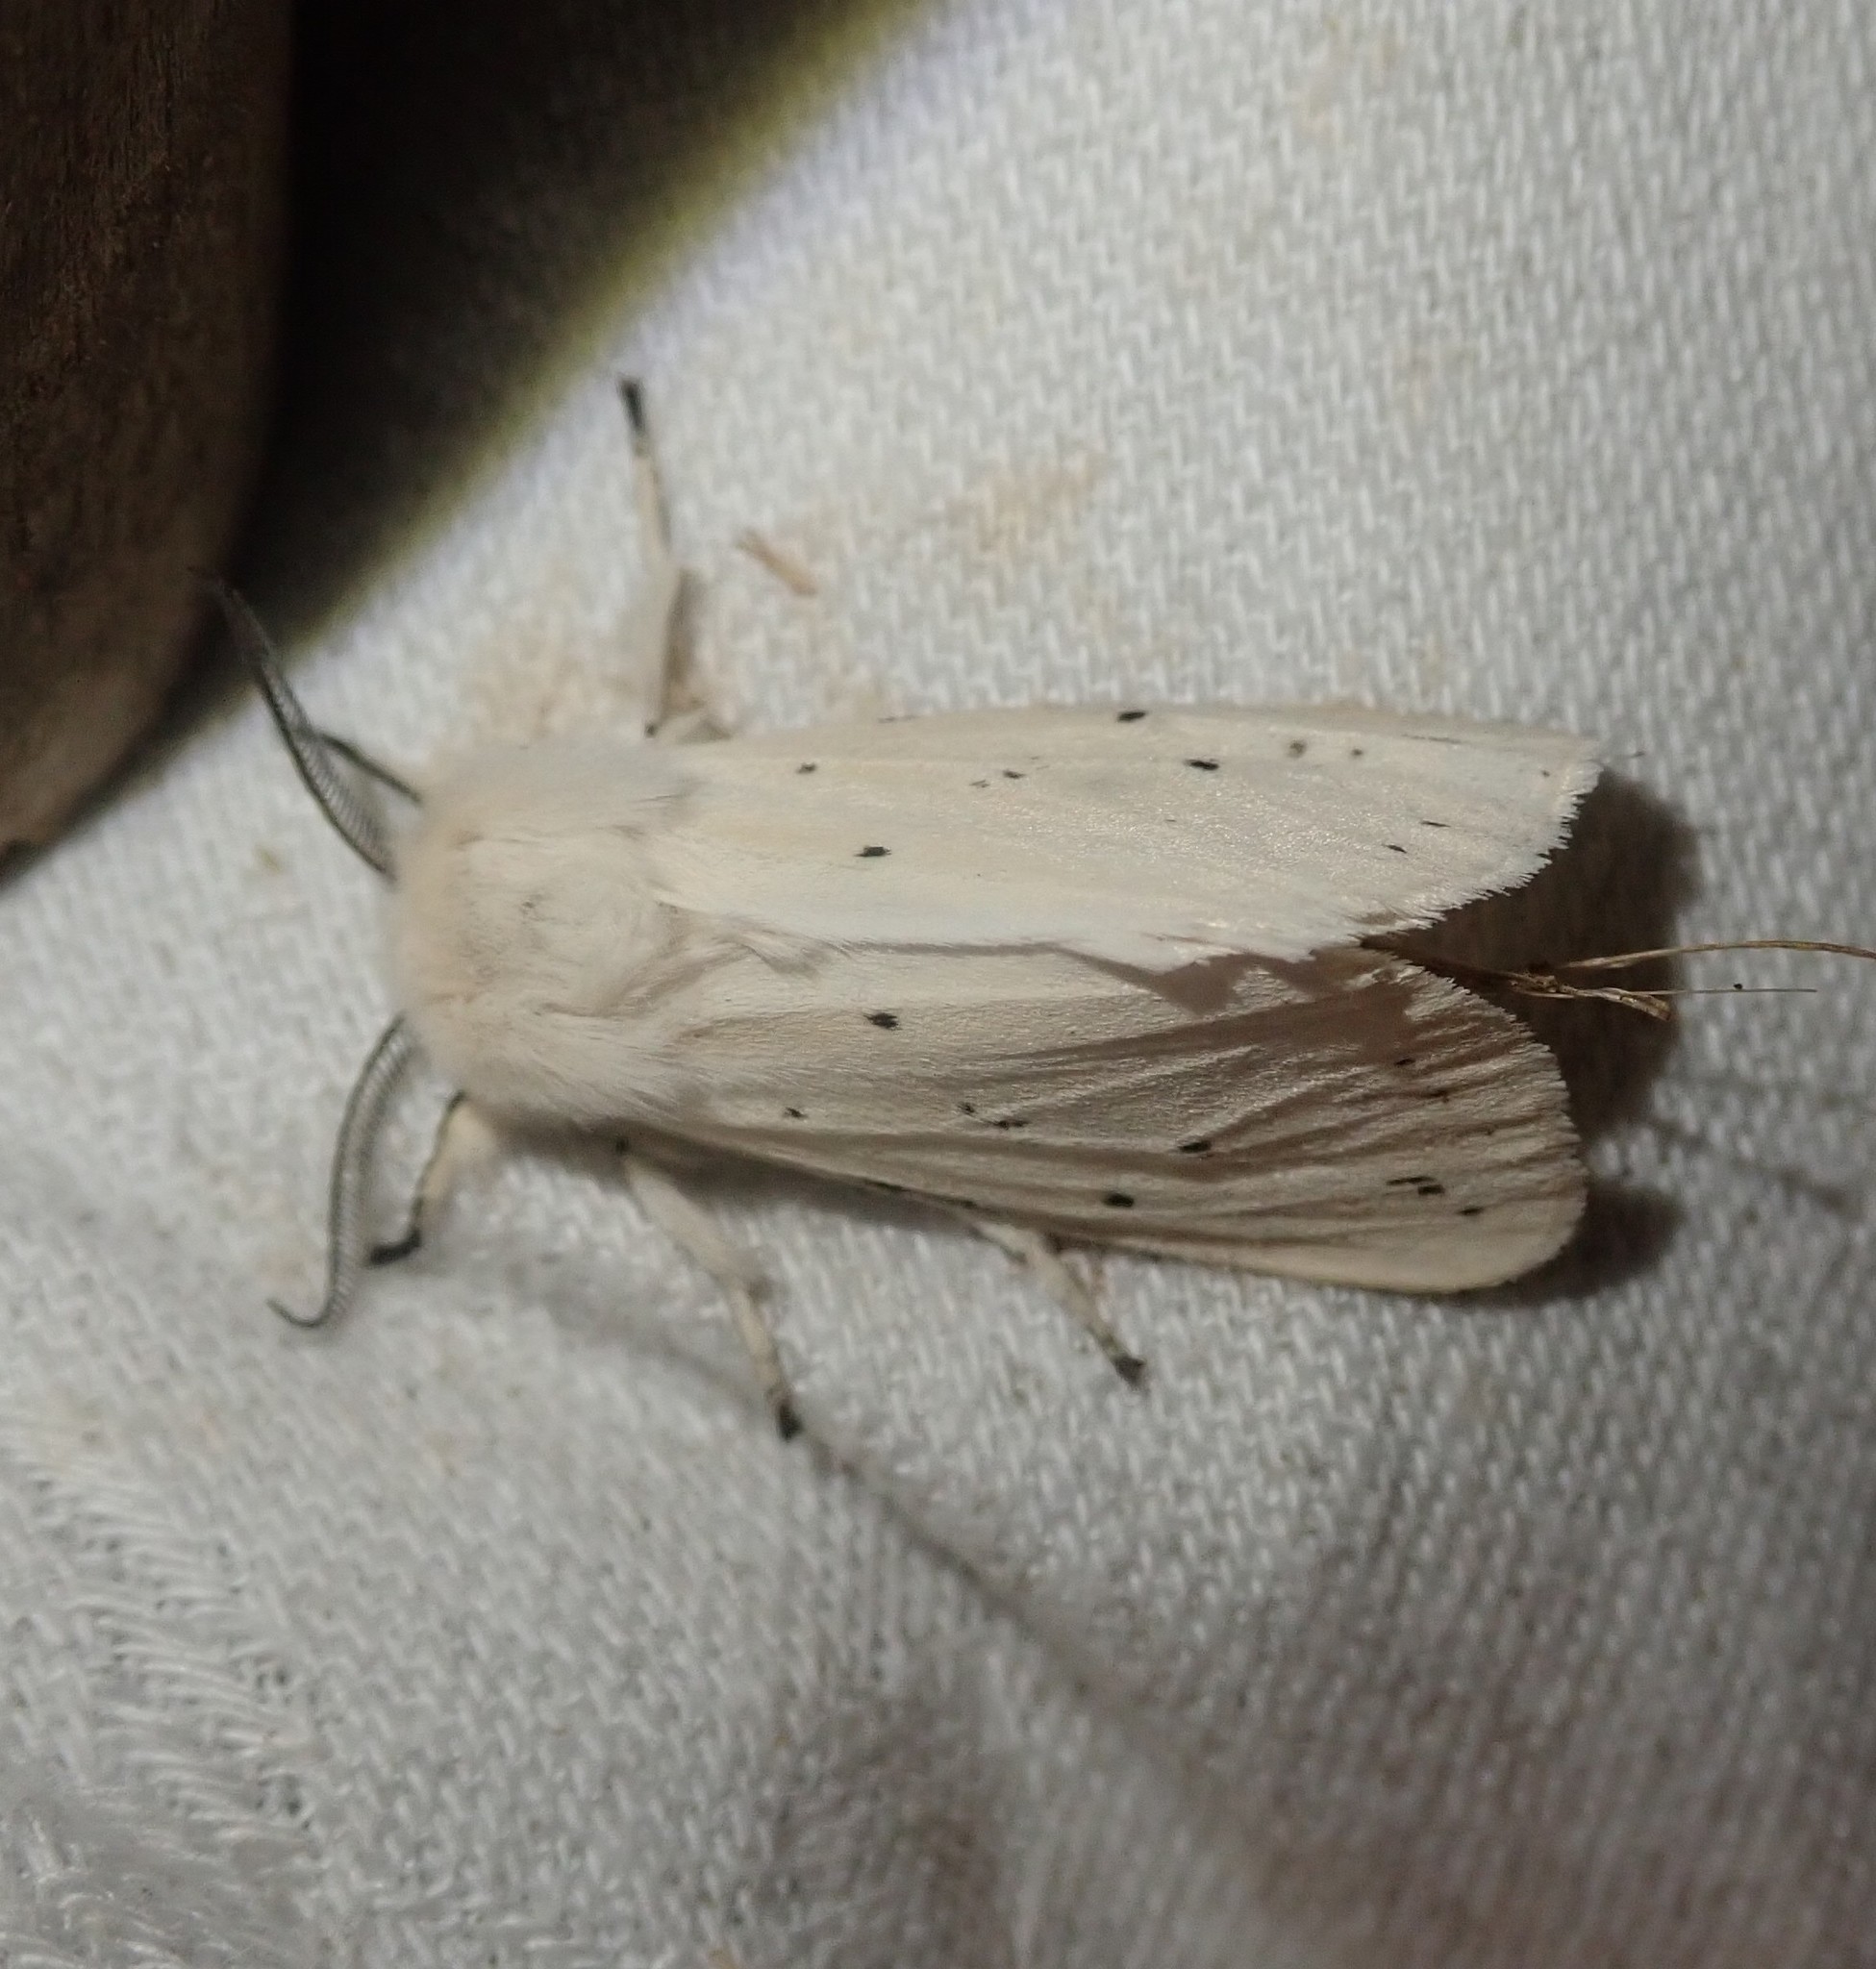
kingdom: Animalia
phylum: Arthropoda
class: Insecta
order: Lepidoptera
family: Erebidae
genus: Spilosoma
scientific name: Spilosoma lubricipeda
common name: White ermine
